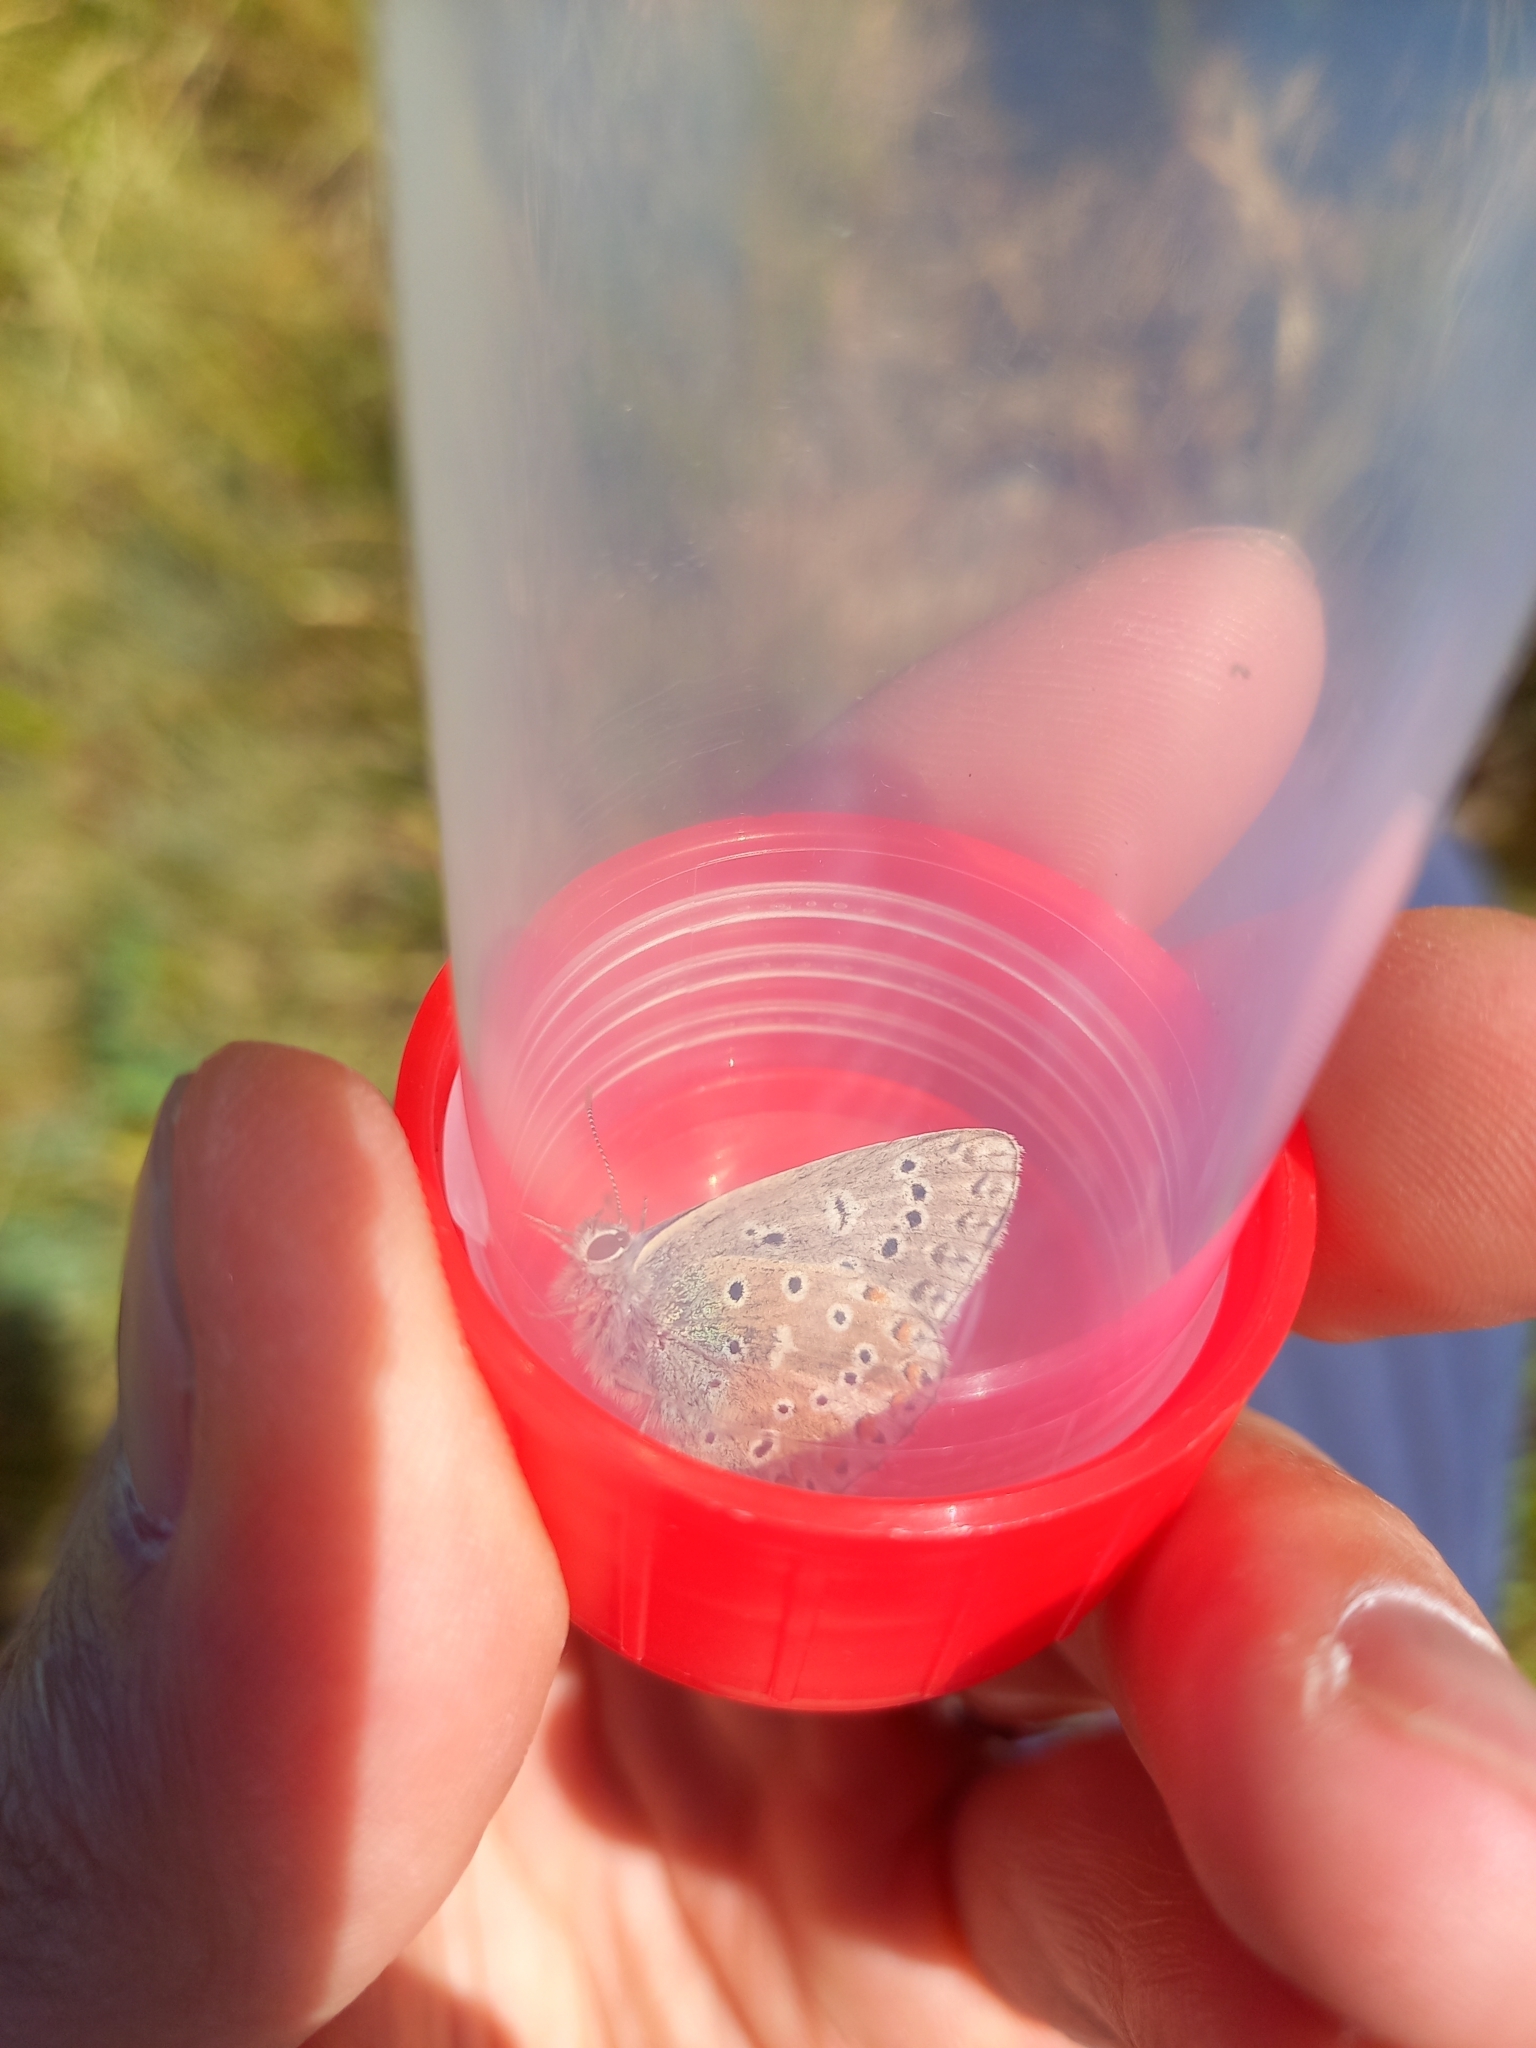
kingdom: Animalia
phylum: Arthropoda
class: Insecta
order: Lepidoptera
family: Lycaenidae
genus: Lysandra
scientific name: Lysandra bellargus
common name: Adonis blue
